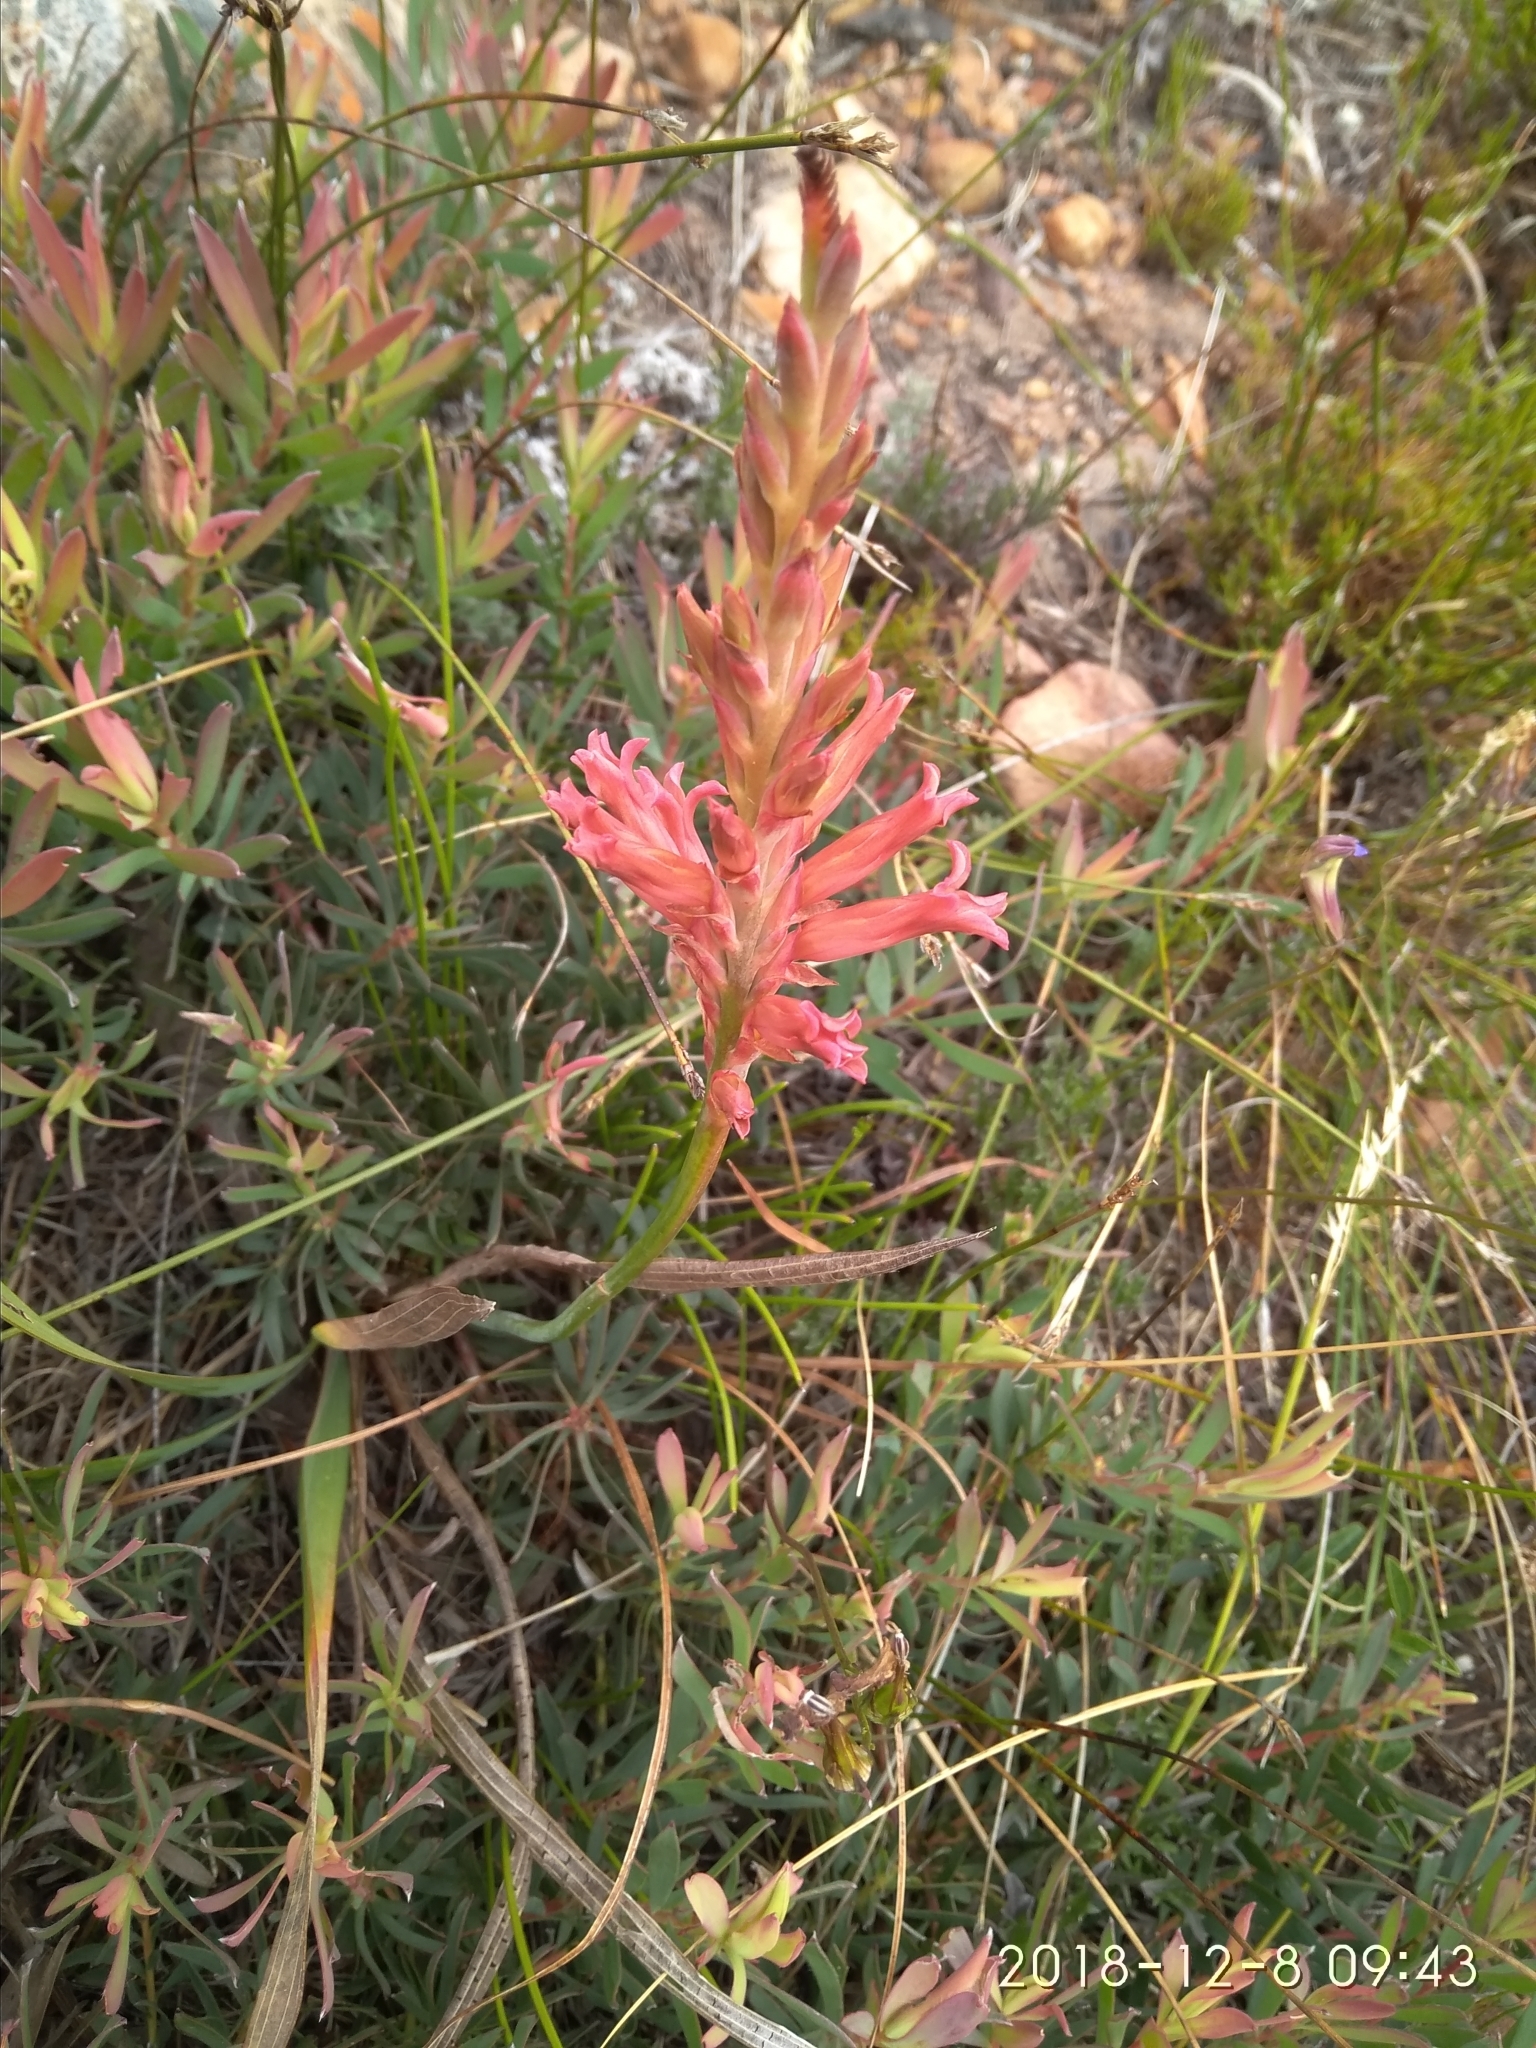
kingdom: Plantae
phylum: Tracheophyta
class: Liliopsida
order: Asparagales
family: Iridaceae
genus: Tritoniopsis
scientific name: Tritoniopsis antholyza
